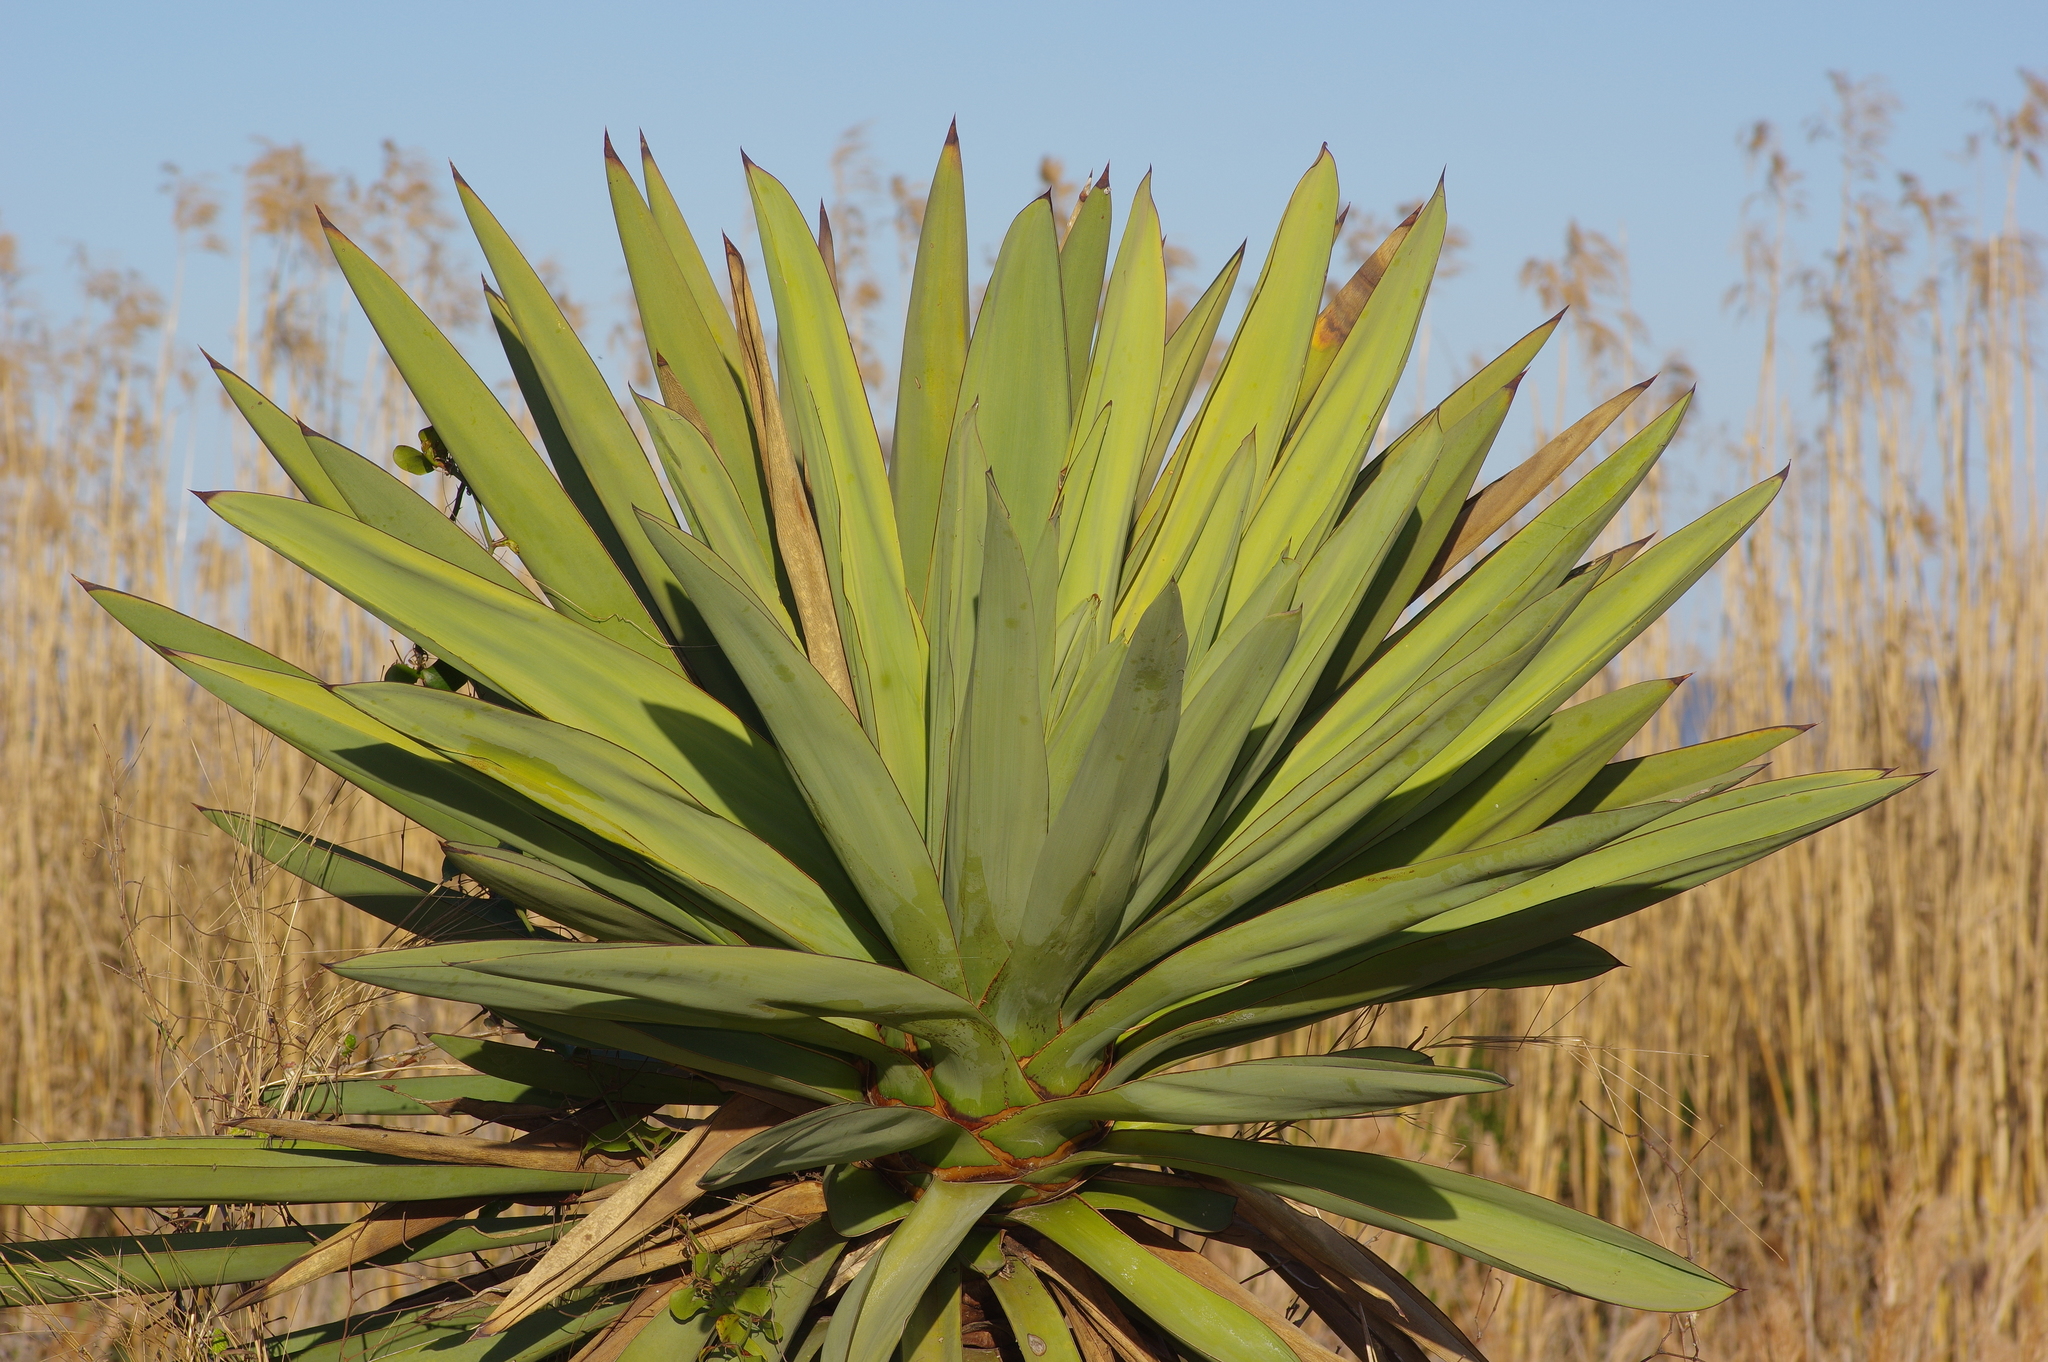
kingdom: Plantae
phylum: Tracheophyta
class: Liliopsida
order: Asparagales
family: Asparagaceae
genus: Yucca
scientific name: Yucca treculiana
